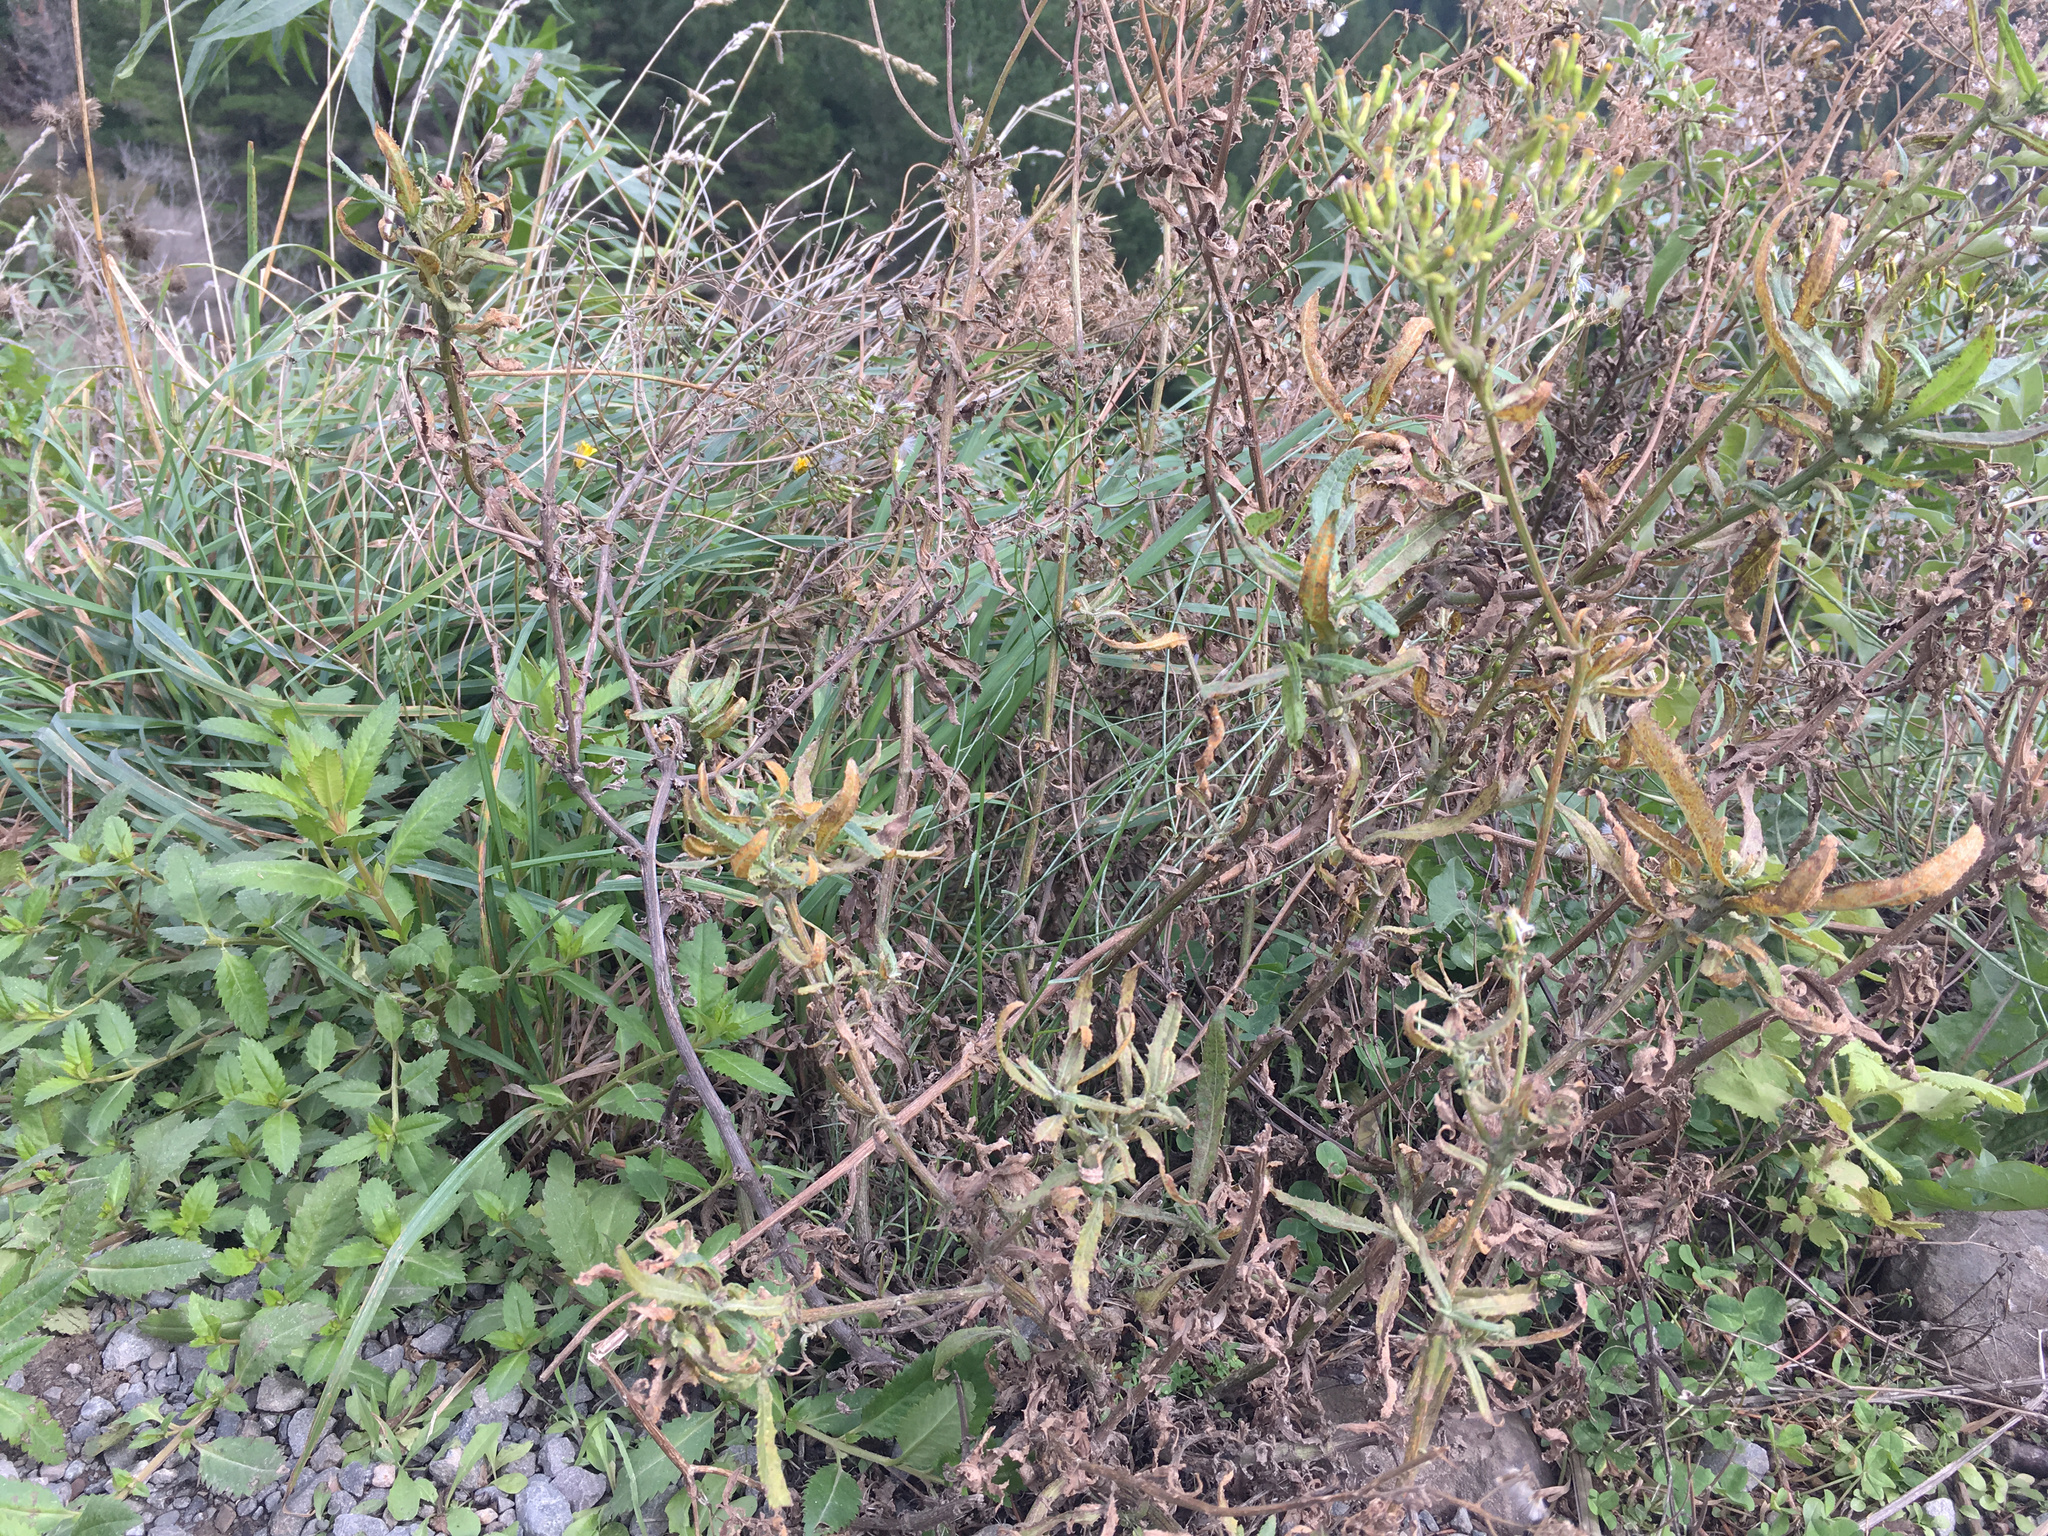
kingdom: Plantae
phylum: Tracheophyta
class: Magnoliopsida
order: Asterales
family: Asteraceae
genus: Senecio
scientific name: Senecio minimus
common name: Toothed fireweed
